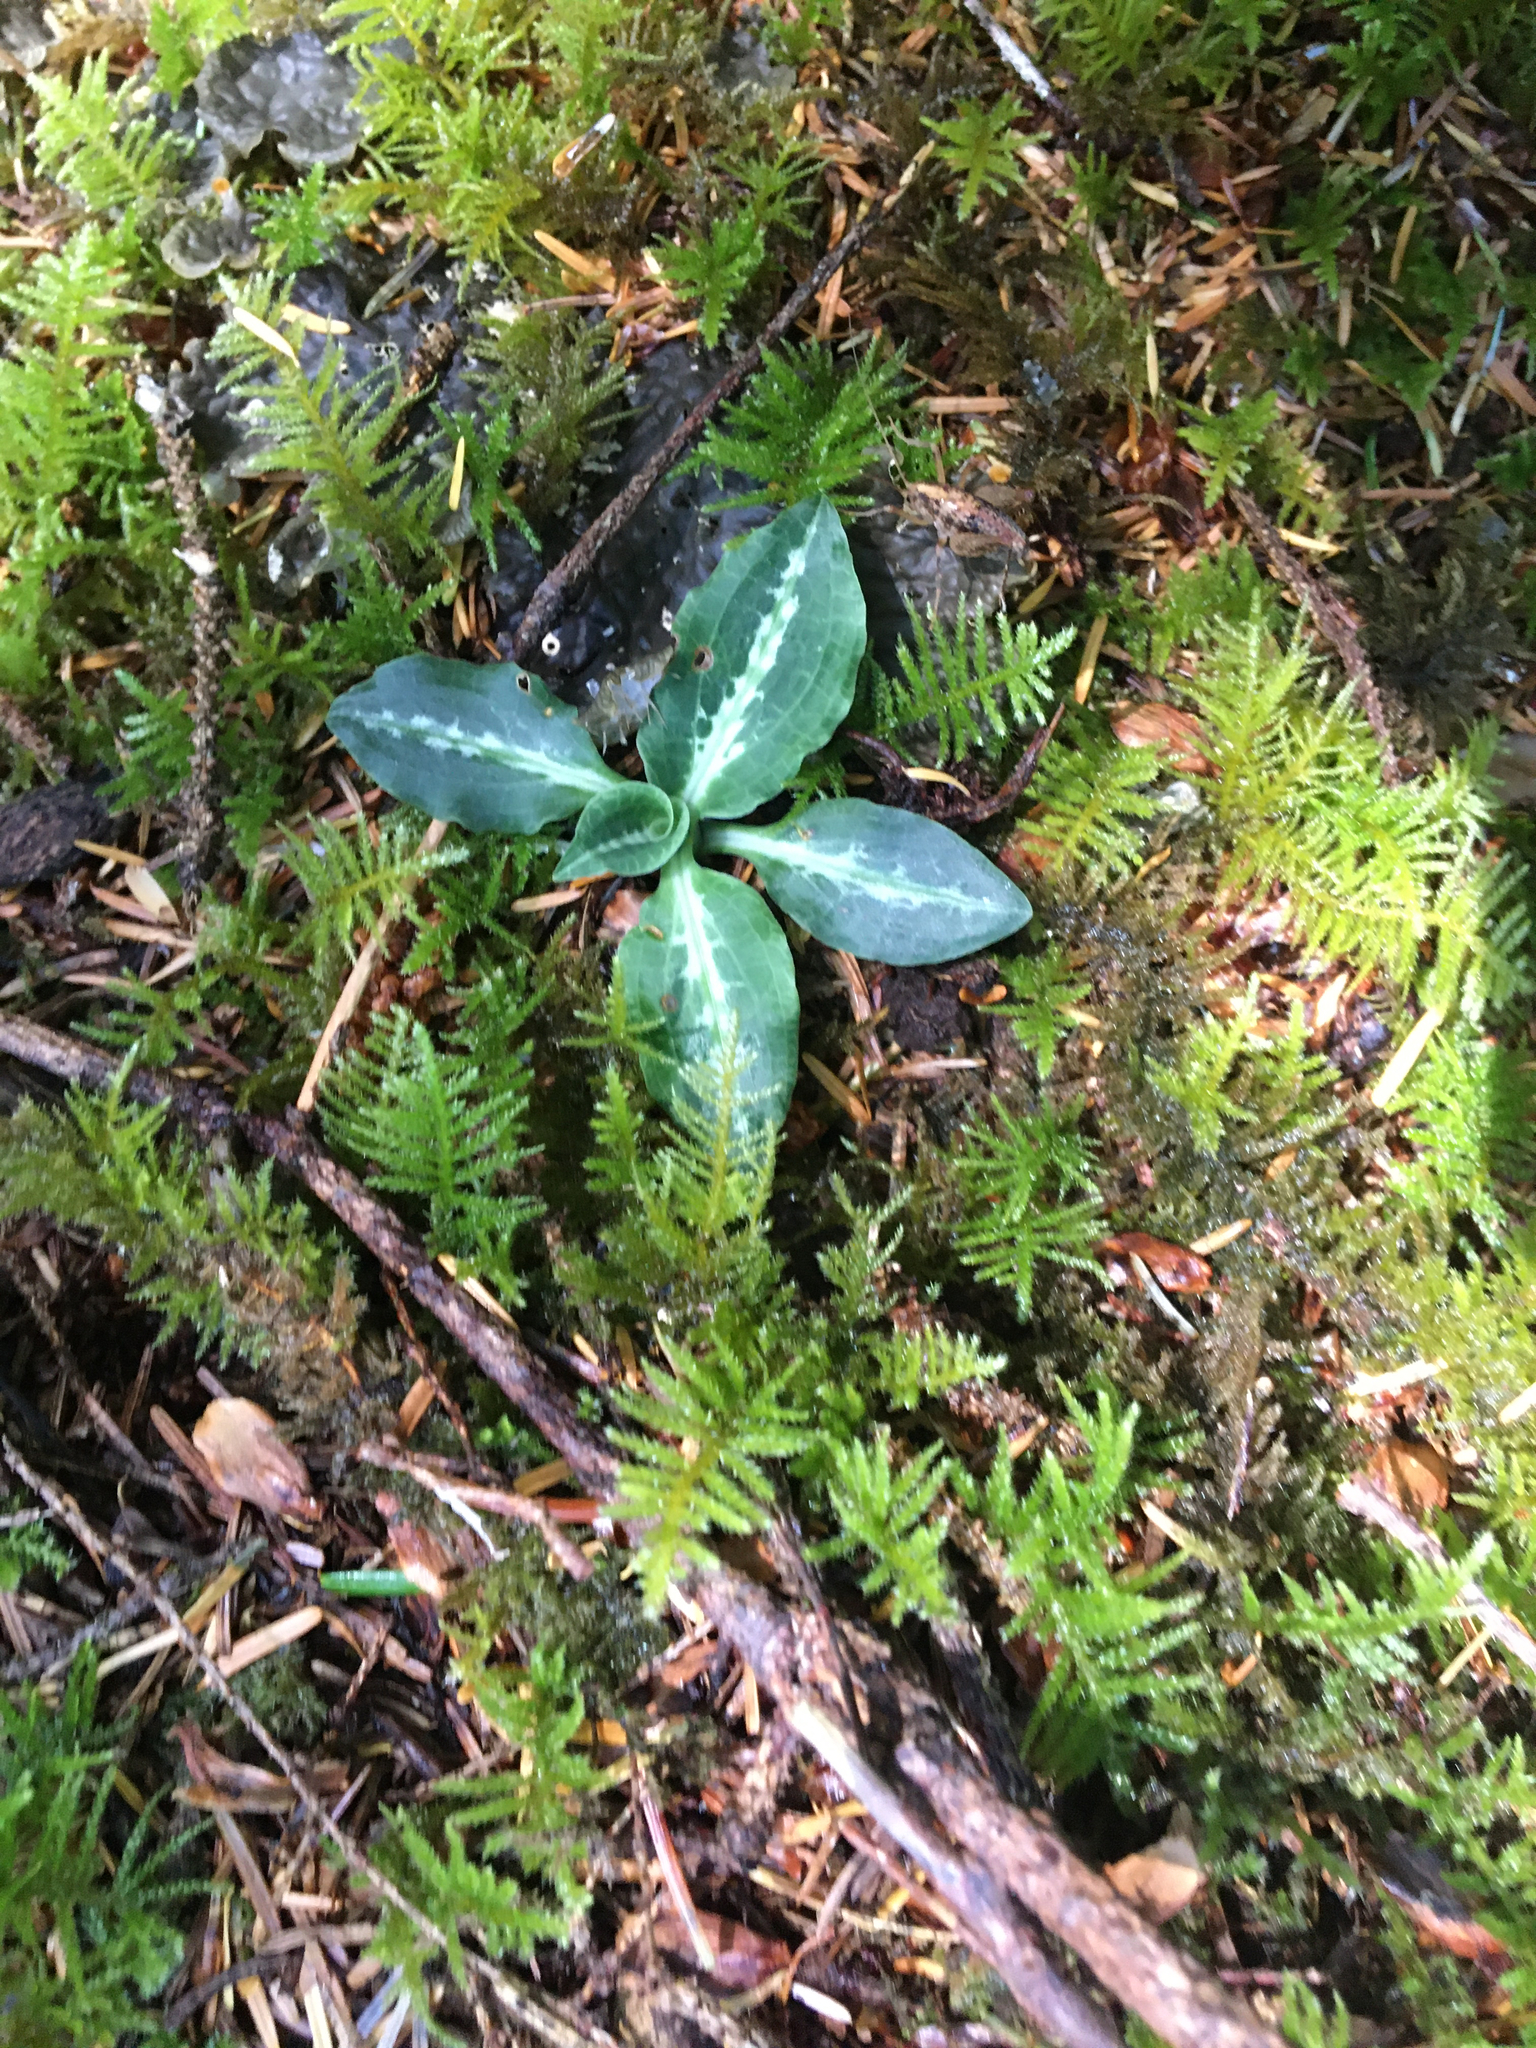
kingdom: Plantae
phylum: Tracheophyta
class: Liliopsida
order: Asparagales
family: Orchidaceae
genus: Goodyera
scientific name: Goodyera oblongifolia
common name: Giant rattlesnake-plantain
